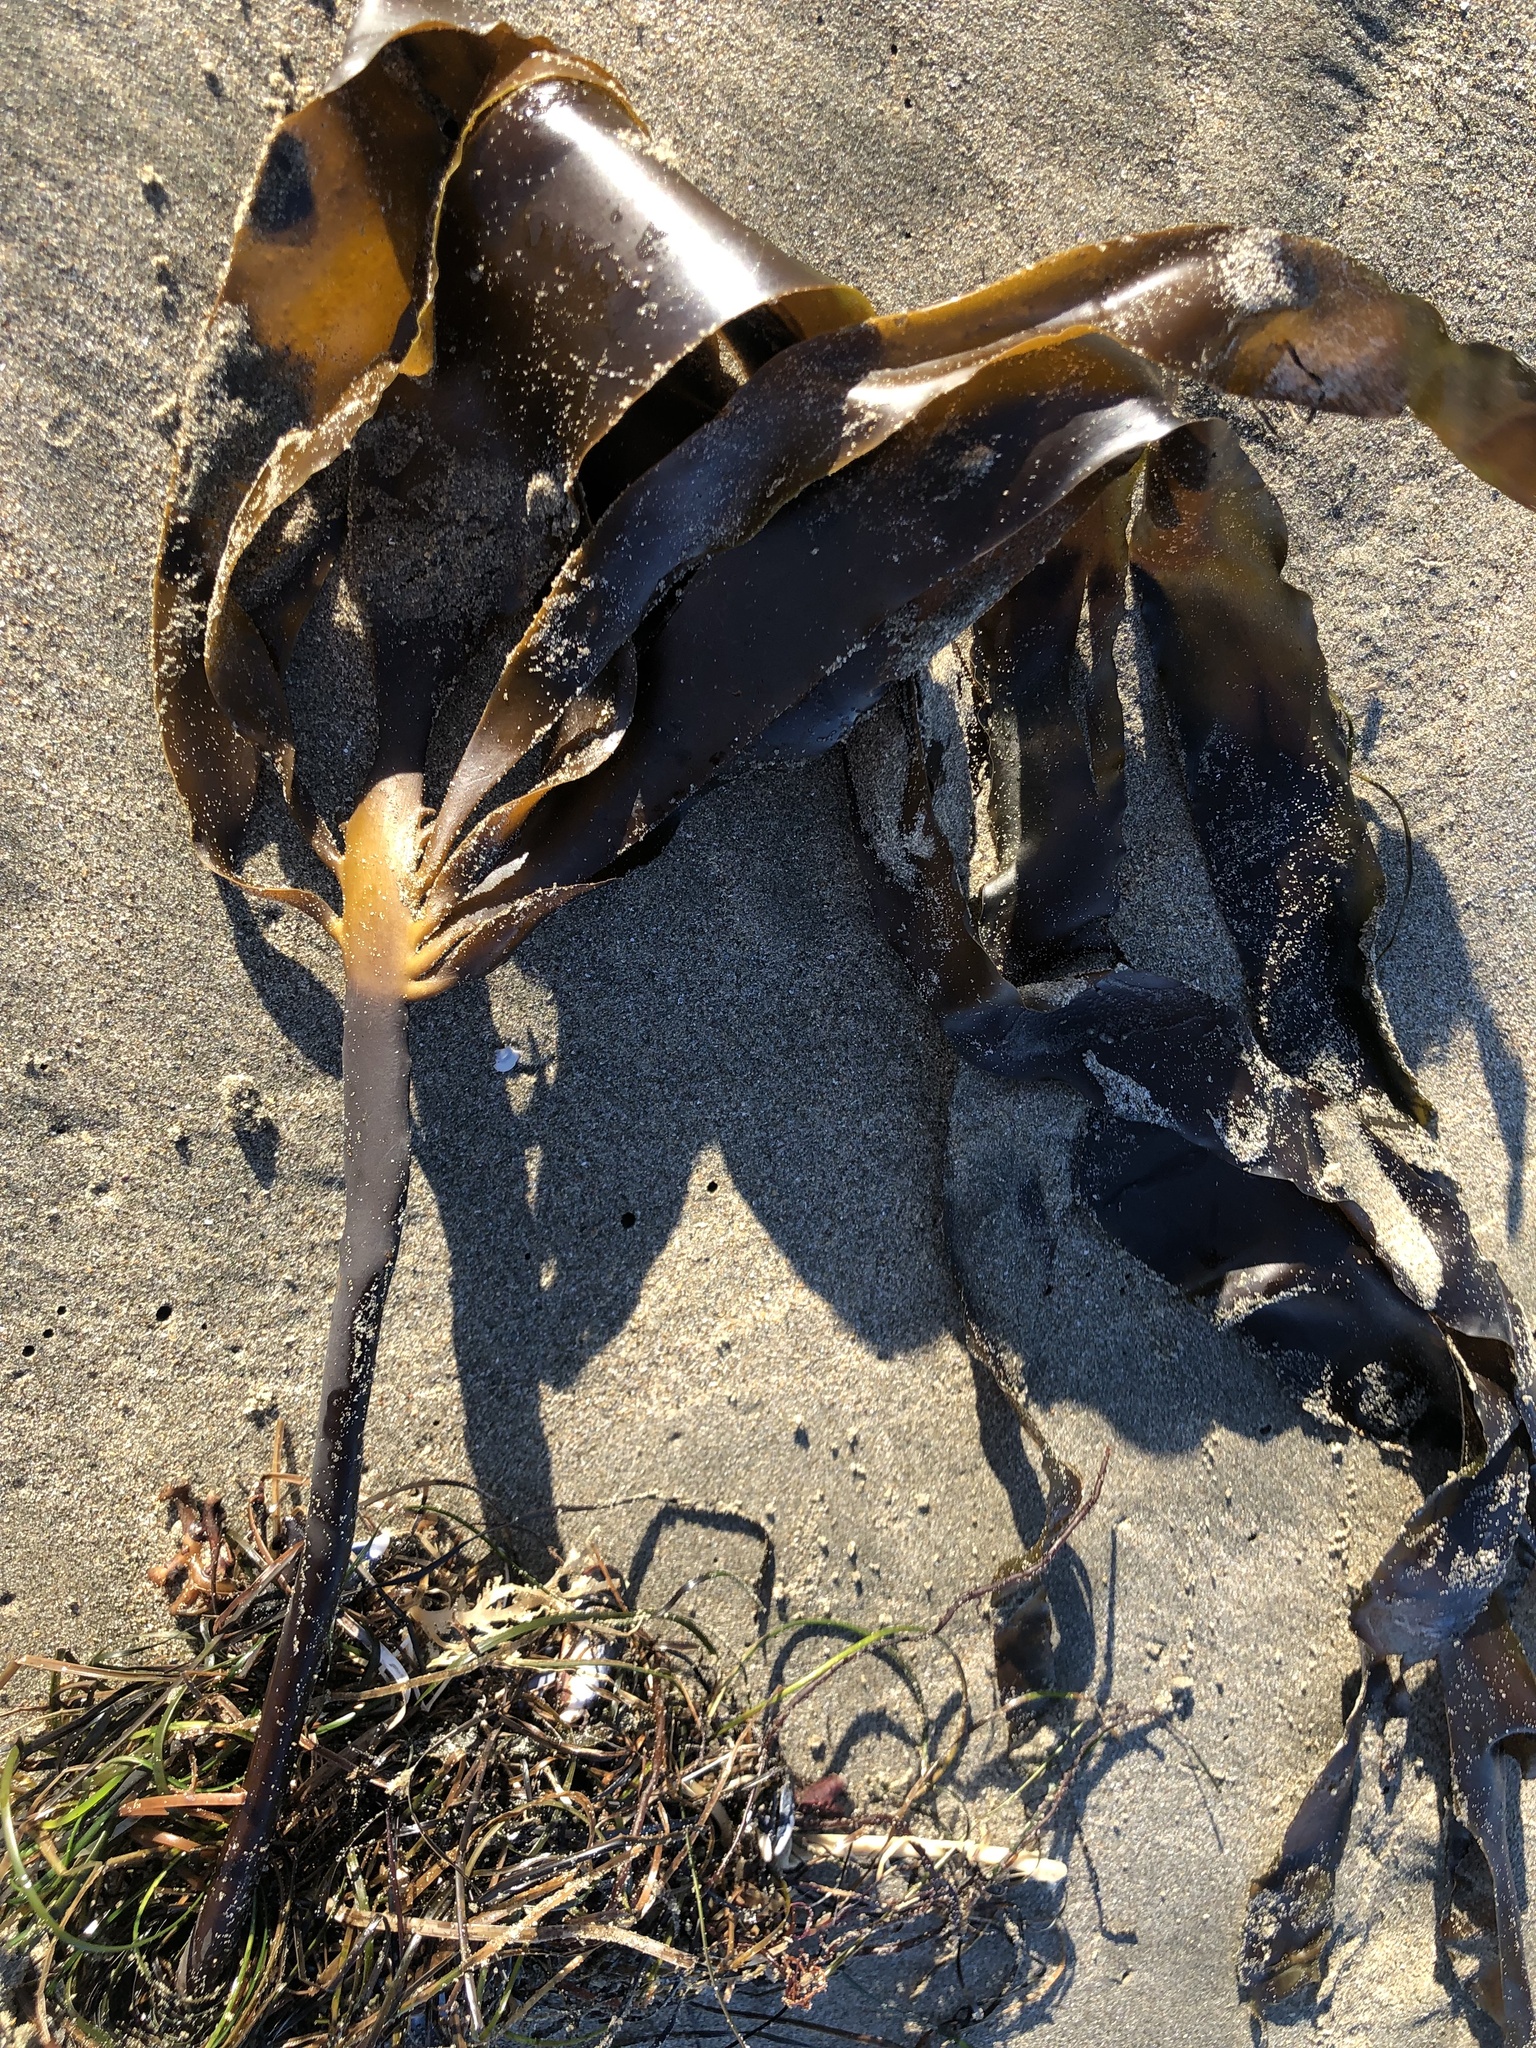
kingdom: Chromista
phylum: Ochrophyta
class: Phaeophyceae
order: Laminariales
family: Alariaceae
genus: Pterygophora
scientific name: Pterygophora californica
